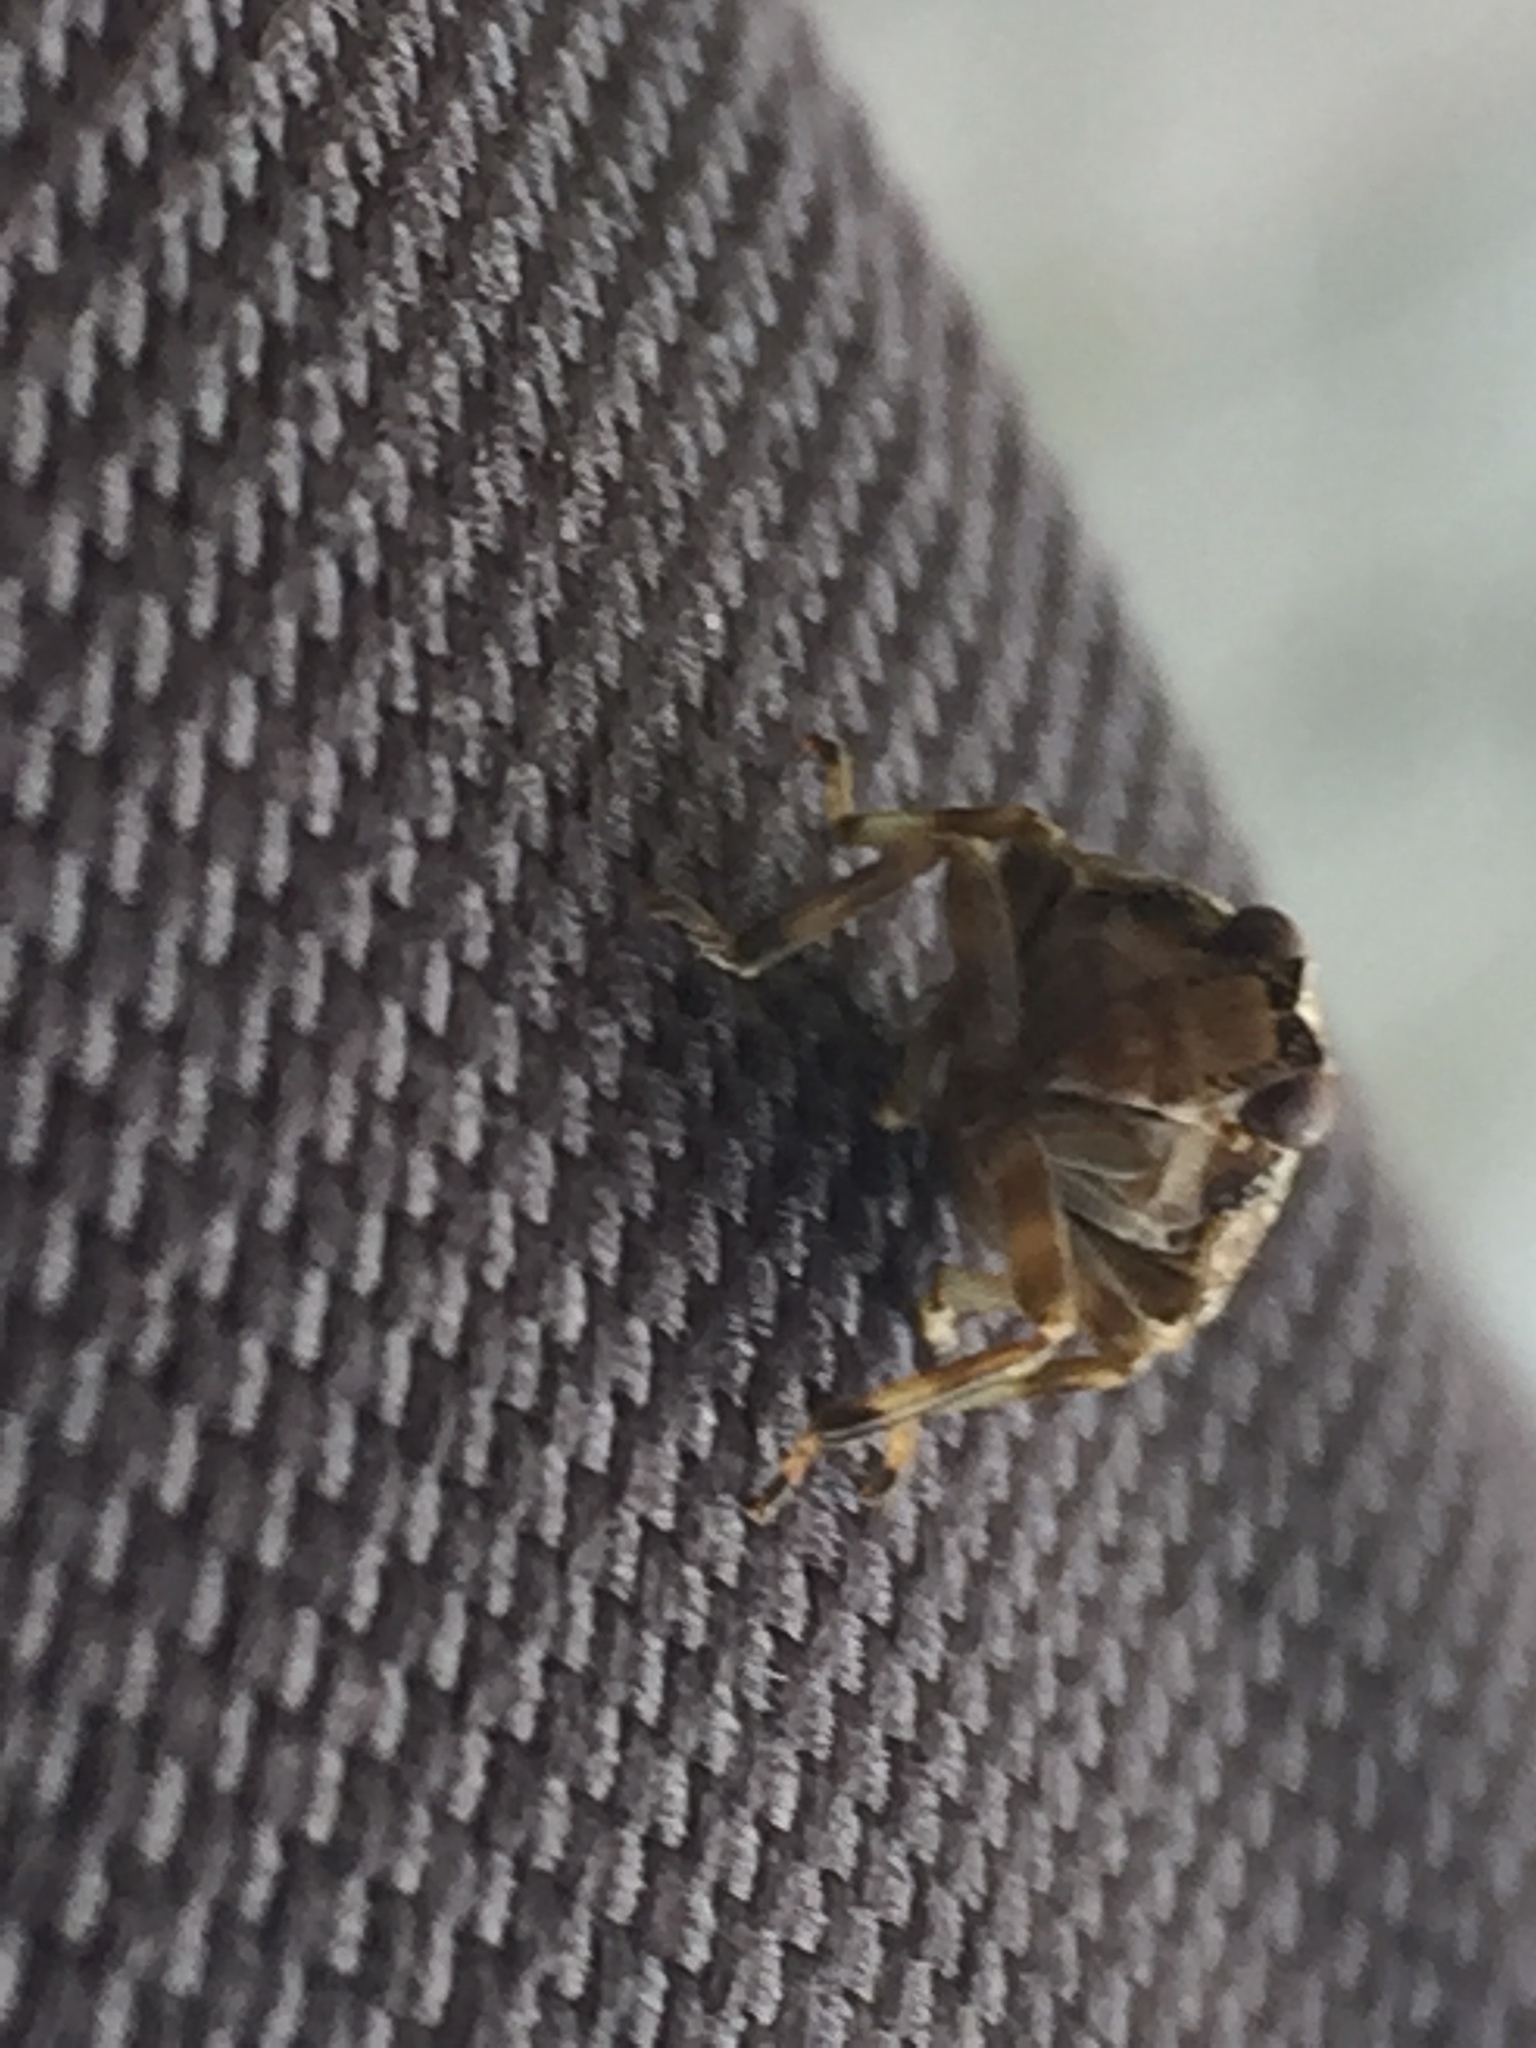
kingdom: Animalia
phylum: Arthropoda
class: Insecta
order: Hemiptera
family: Issidae
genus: Issus
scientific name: Issus coleoptratus
